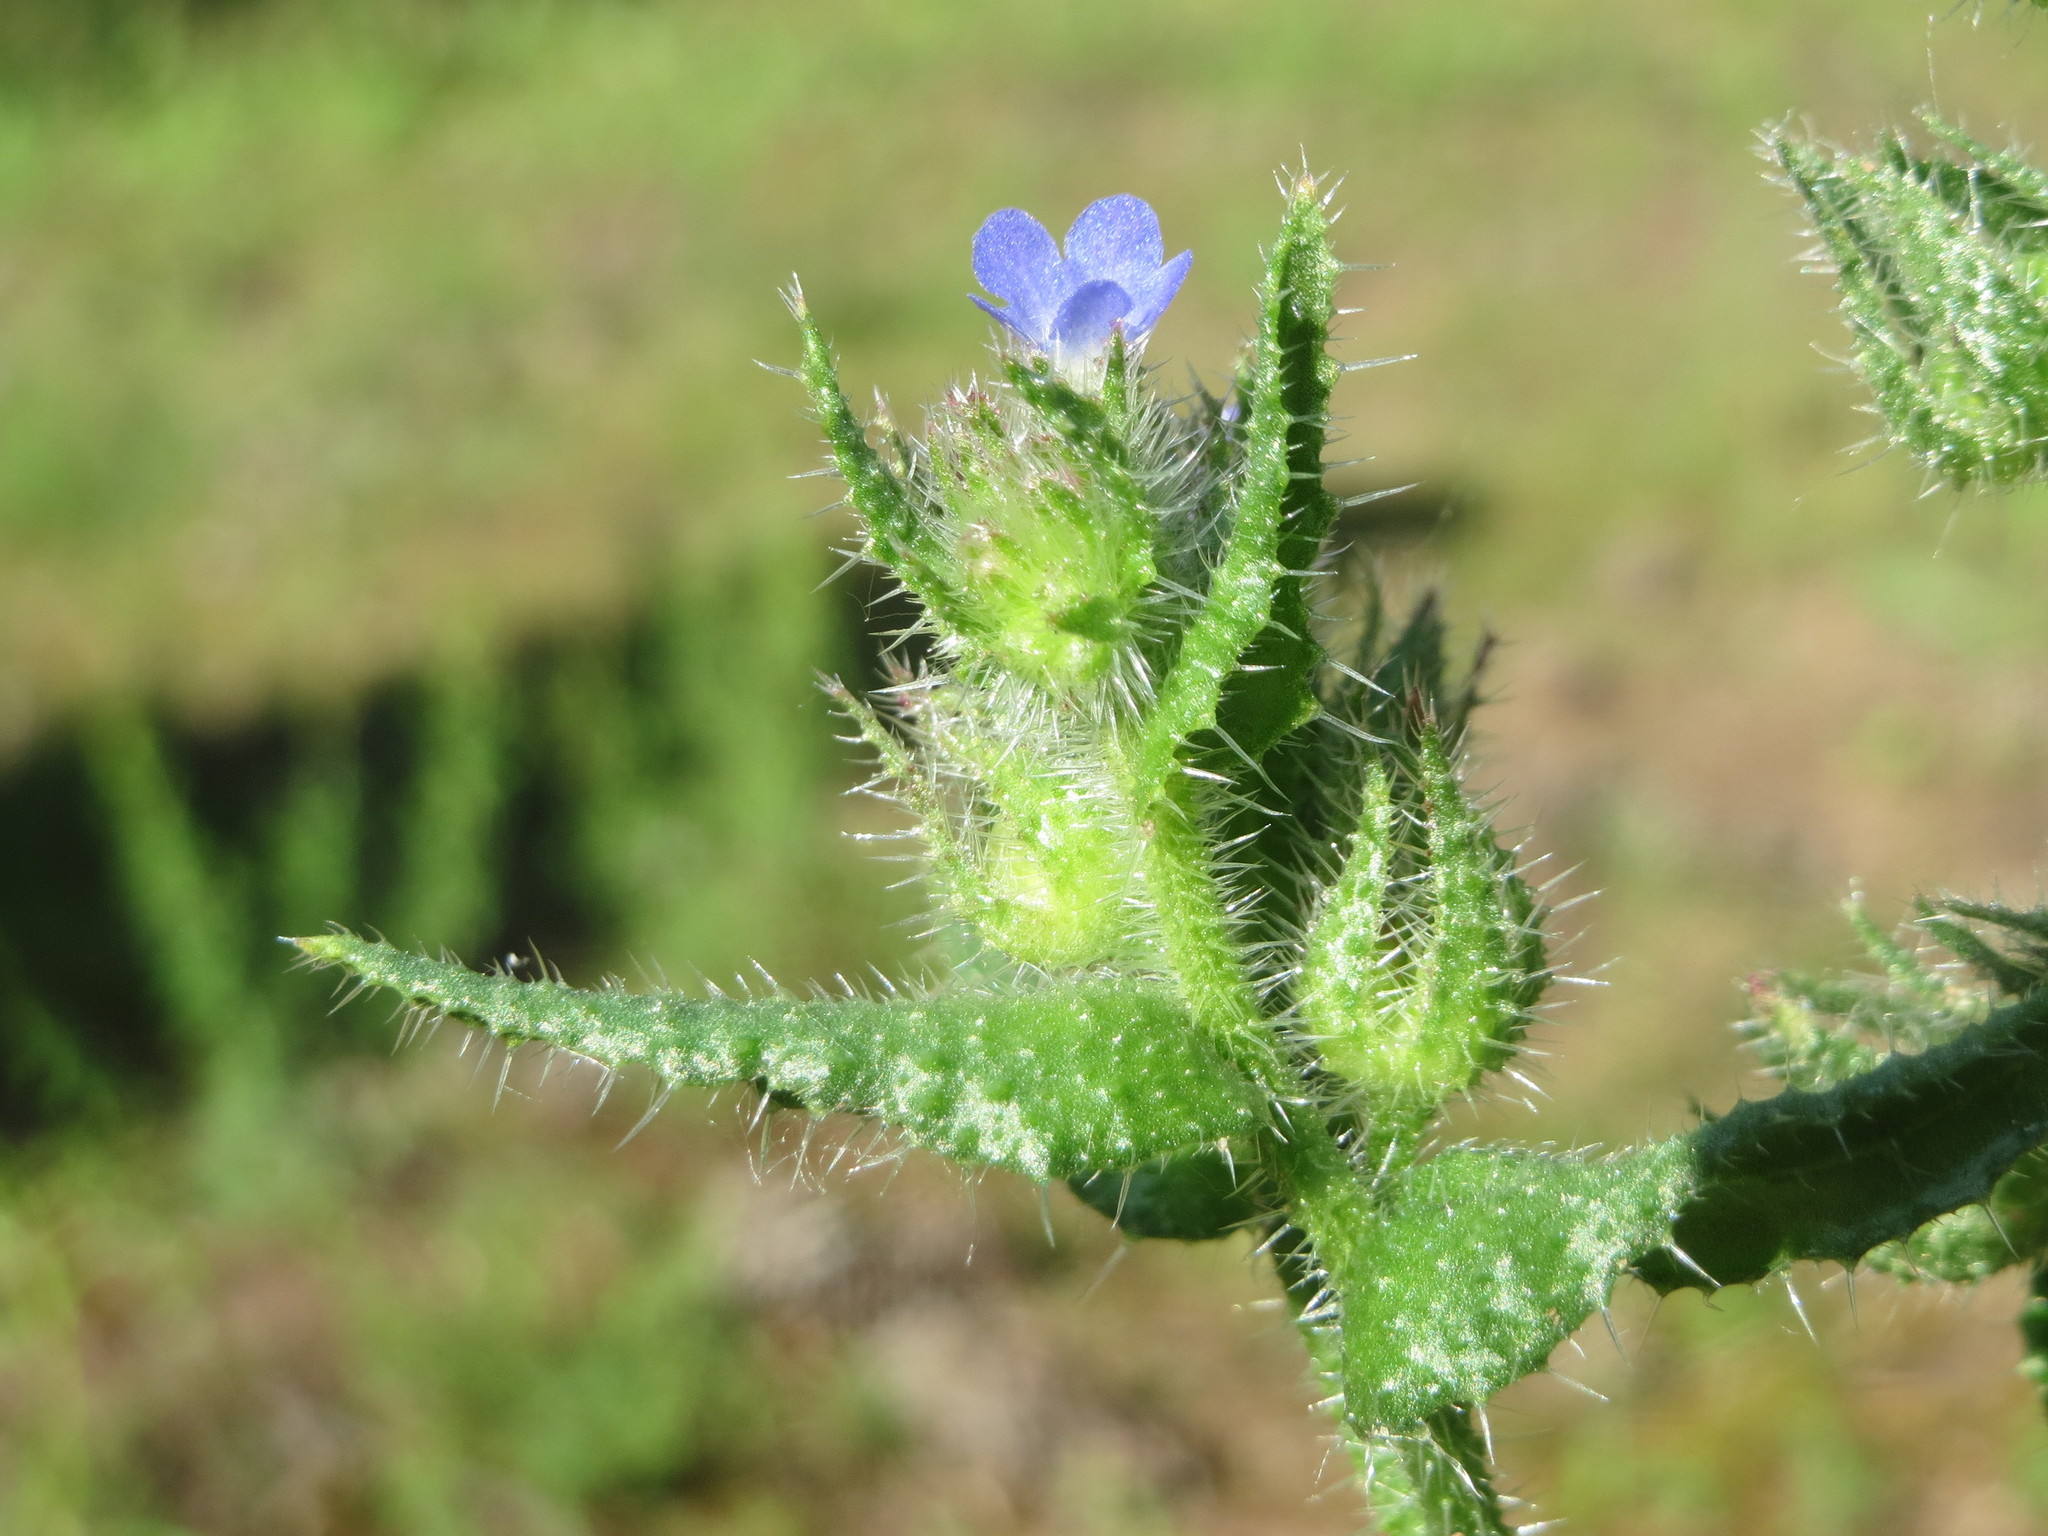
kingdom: Plantae
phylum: Tracheophyta
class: Magnoliopsida
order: Boraginales
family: Boraginaceae
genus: Lycopsis
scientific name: Lycopsis arvensis
